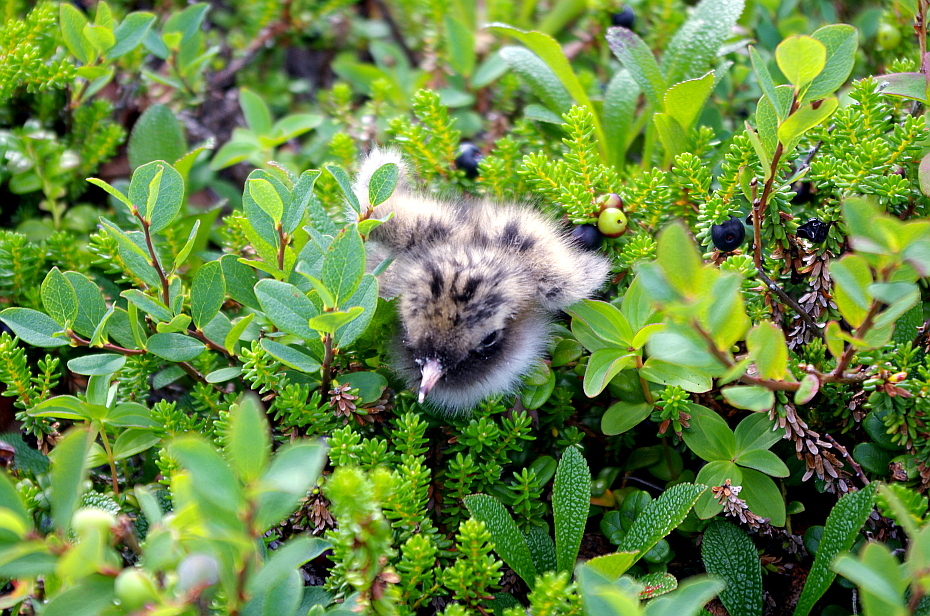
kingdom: Animalia
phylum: Chordata
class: Aves
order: Charadriiformes
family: Laridae
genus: Sterna
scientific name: Sterna paradisaea
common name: Arctic tern
